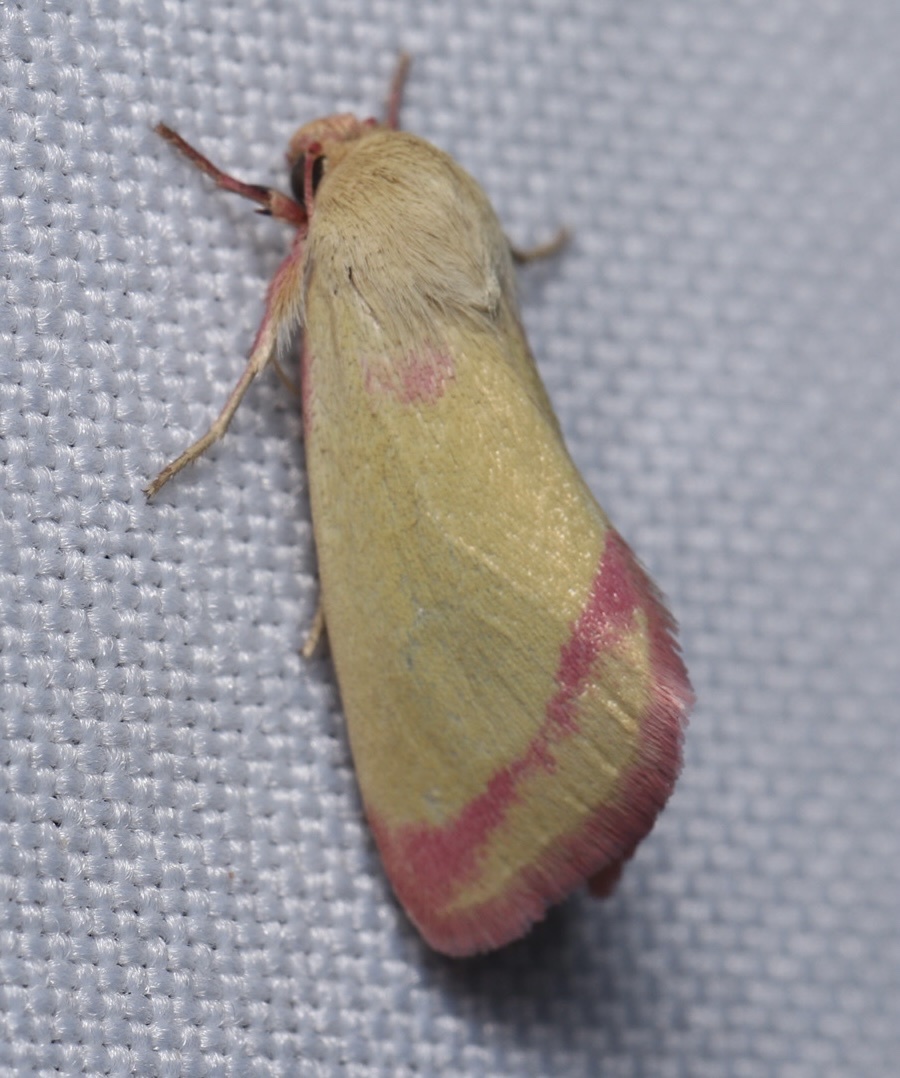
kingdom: Animalia
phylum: Arthropoda
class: Insecta
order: Lepidoptera
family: Noctuidae
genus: Heliocheilus
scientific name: Heliocheilus toralis
